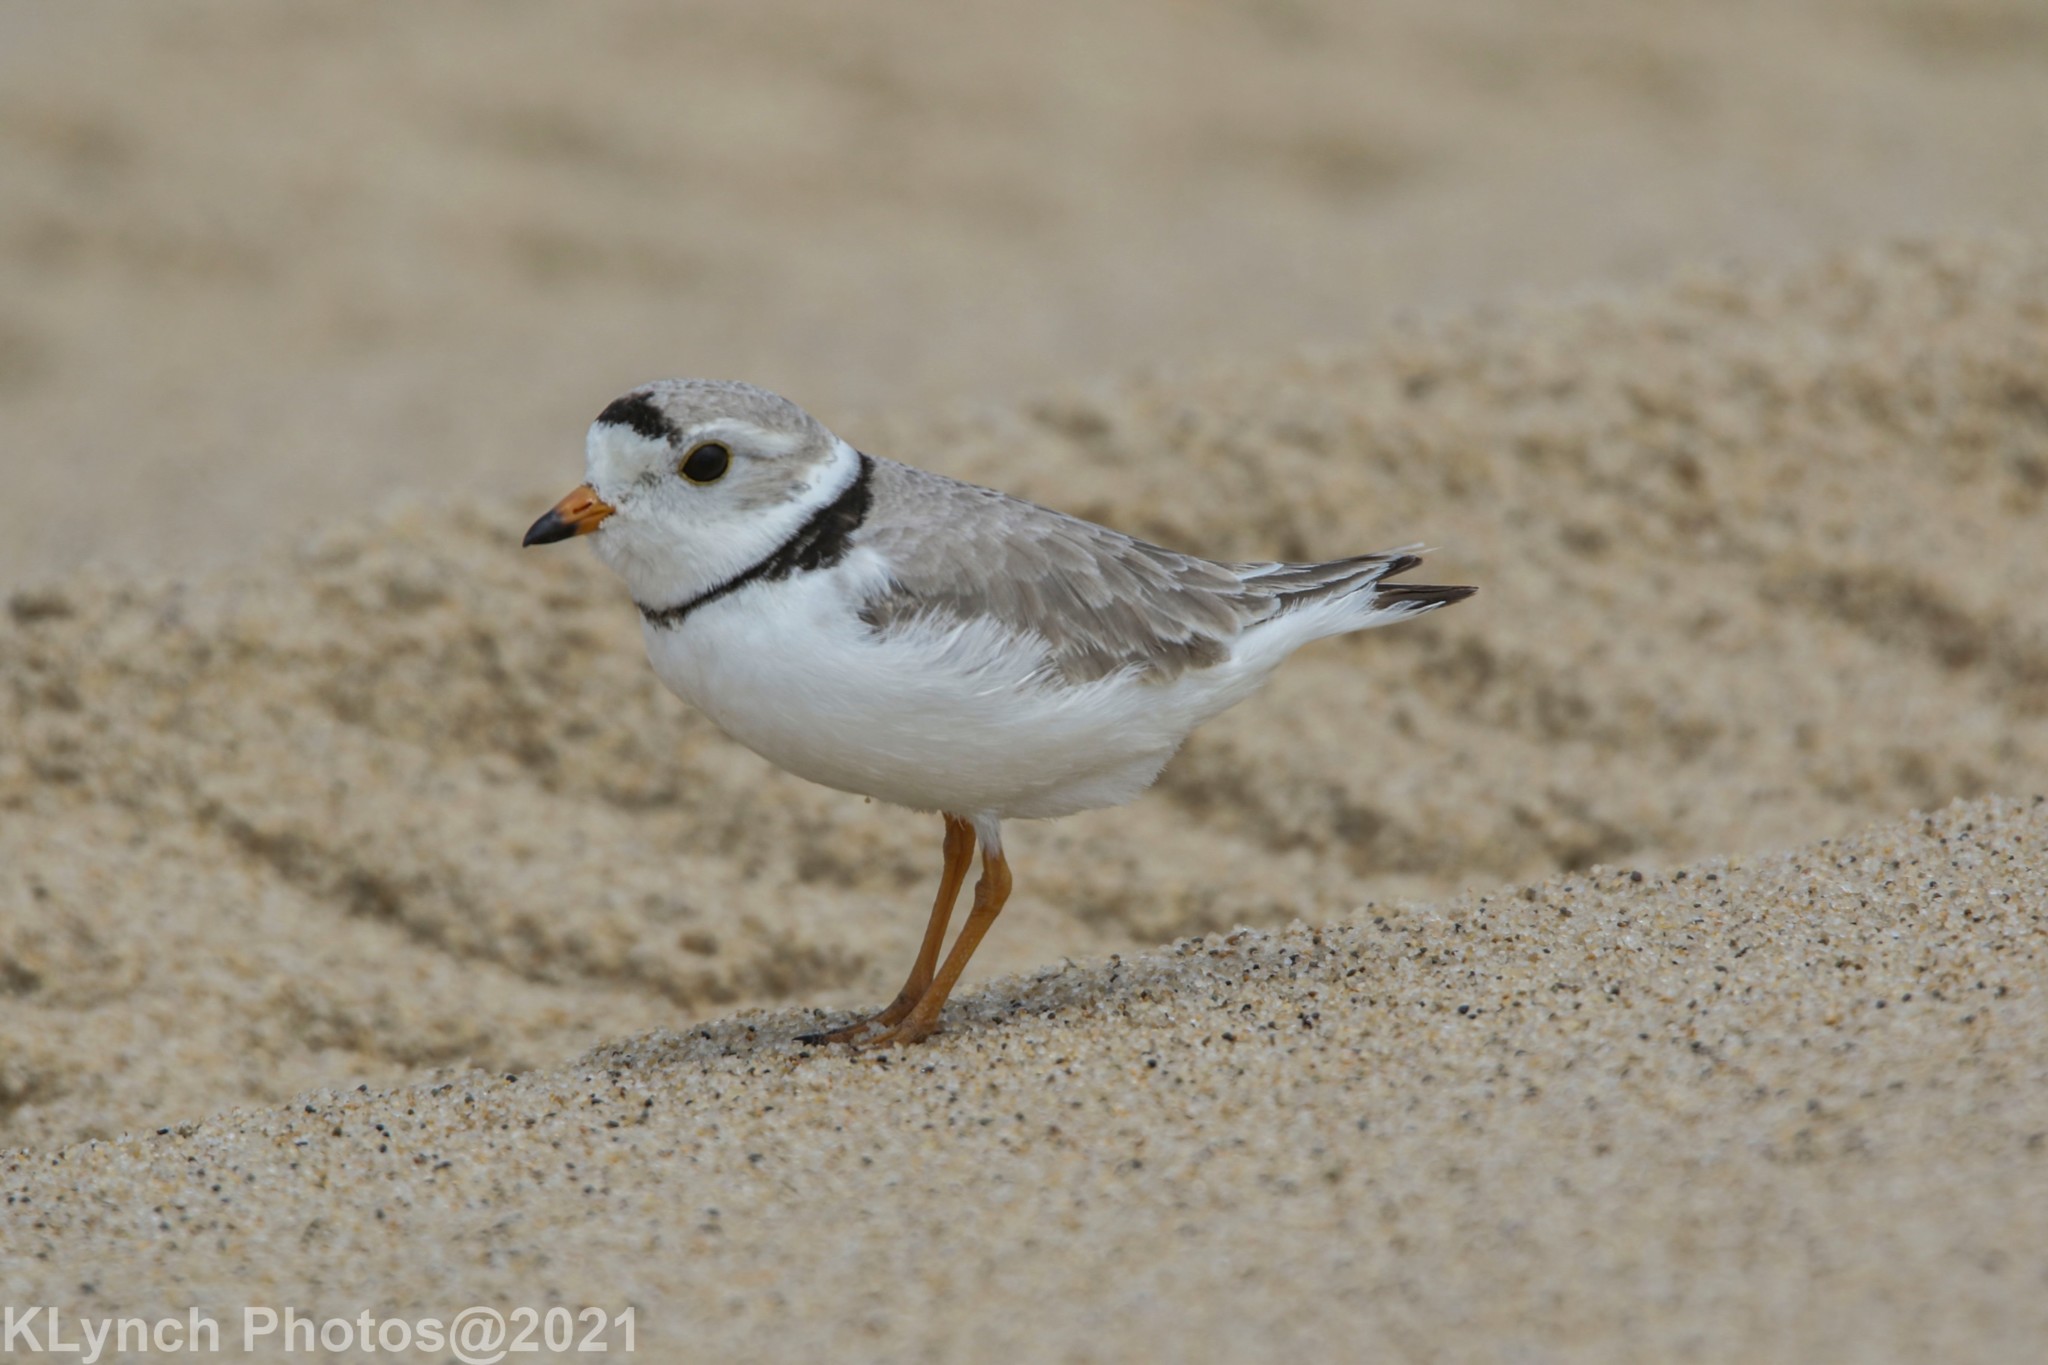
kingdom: Animalia
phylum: Chordata
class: Aves
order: Charadriiformes
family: Charadriidae
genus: Charadrius
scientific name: Charadrius melodus
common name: Piping plover
